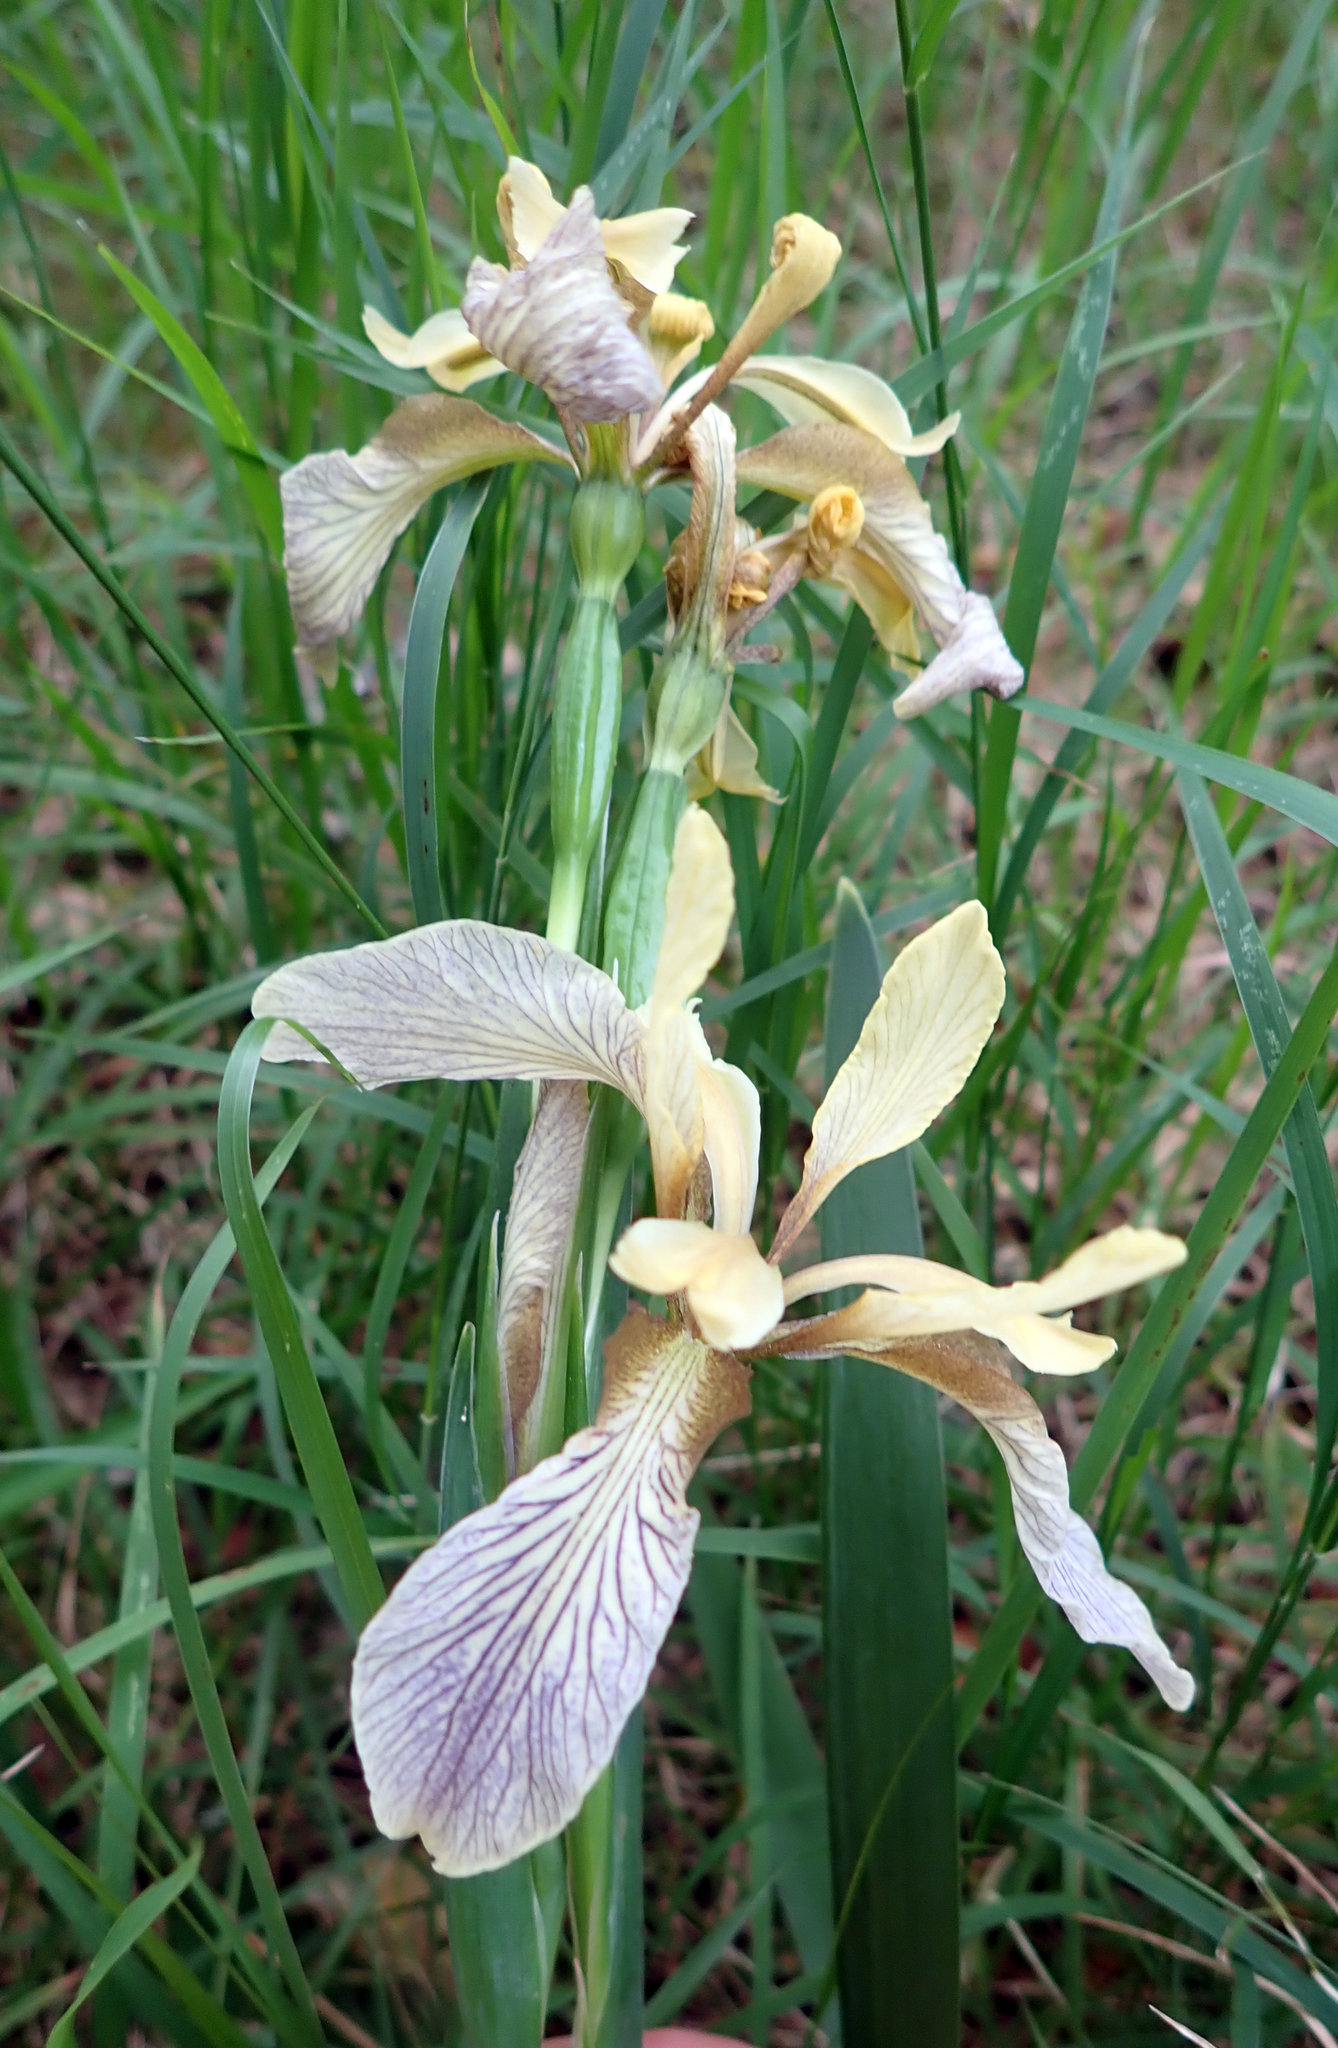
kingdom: Plantae
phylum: Tracheophyta
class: Liliopsida
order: Asparagales
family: Iridaceae
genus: Iris
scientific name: Iris foetidissima
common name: Stinking iris
